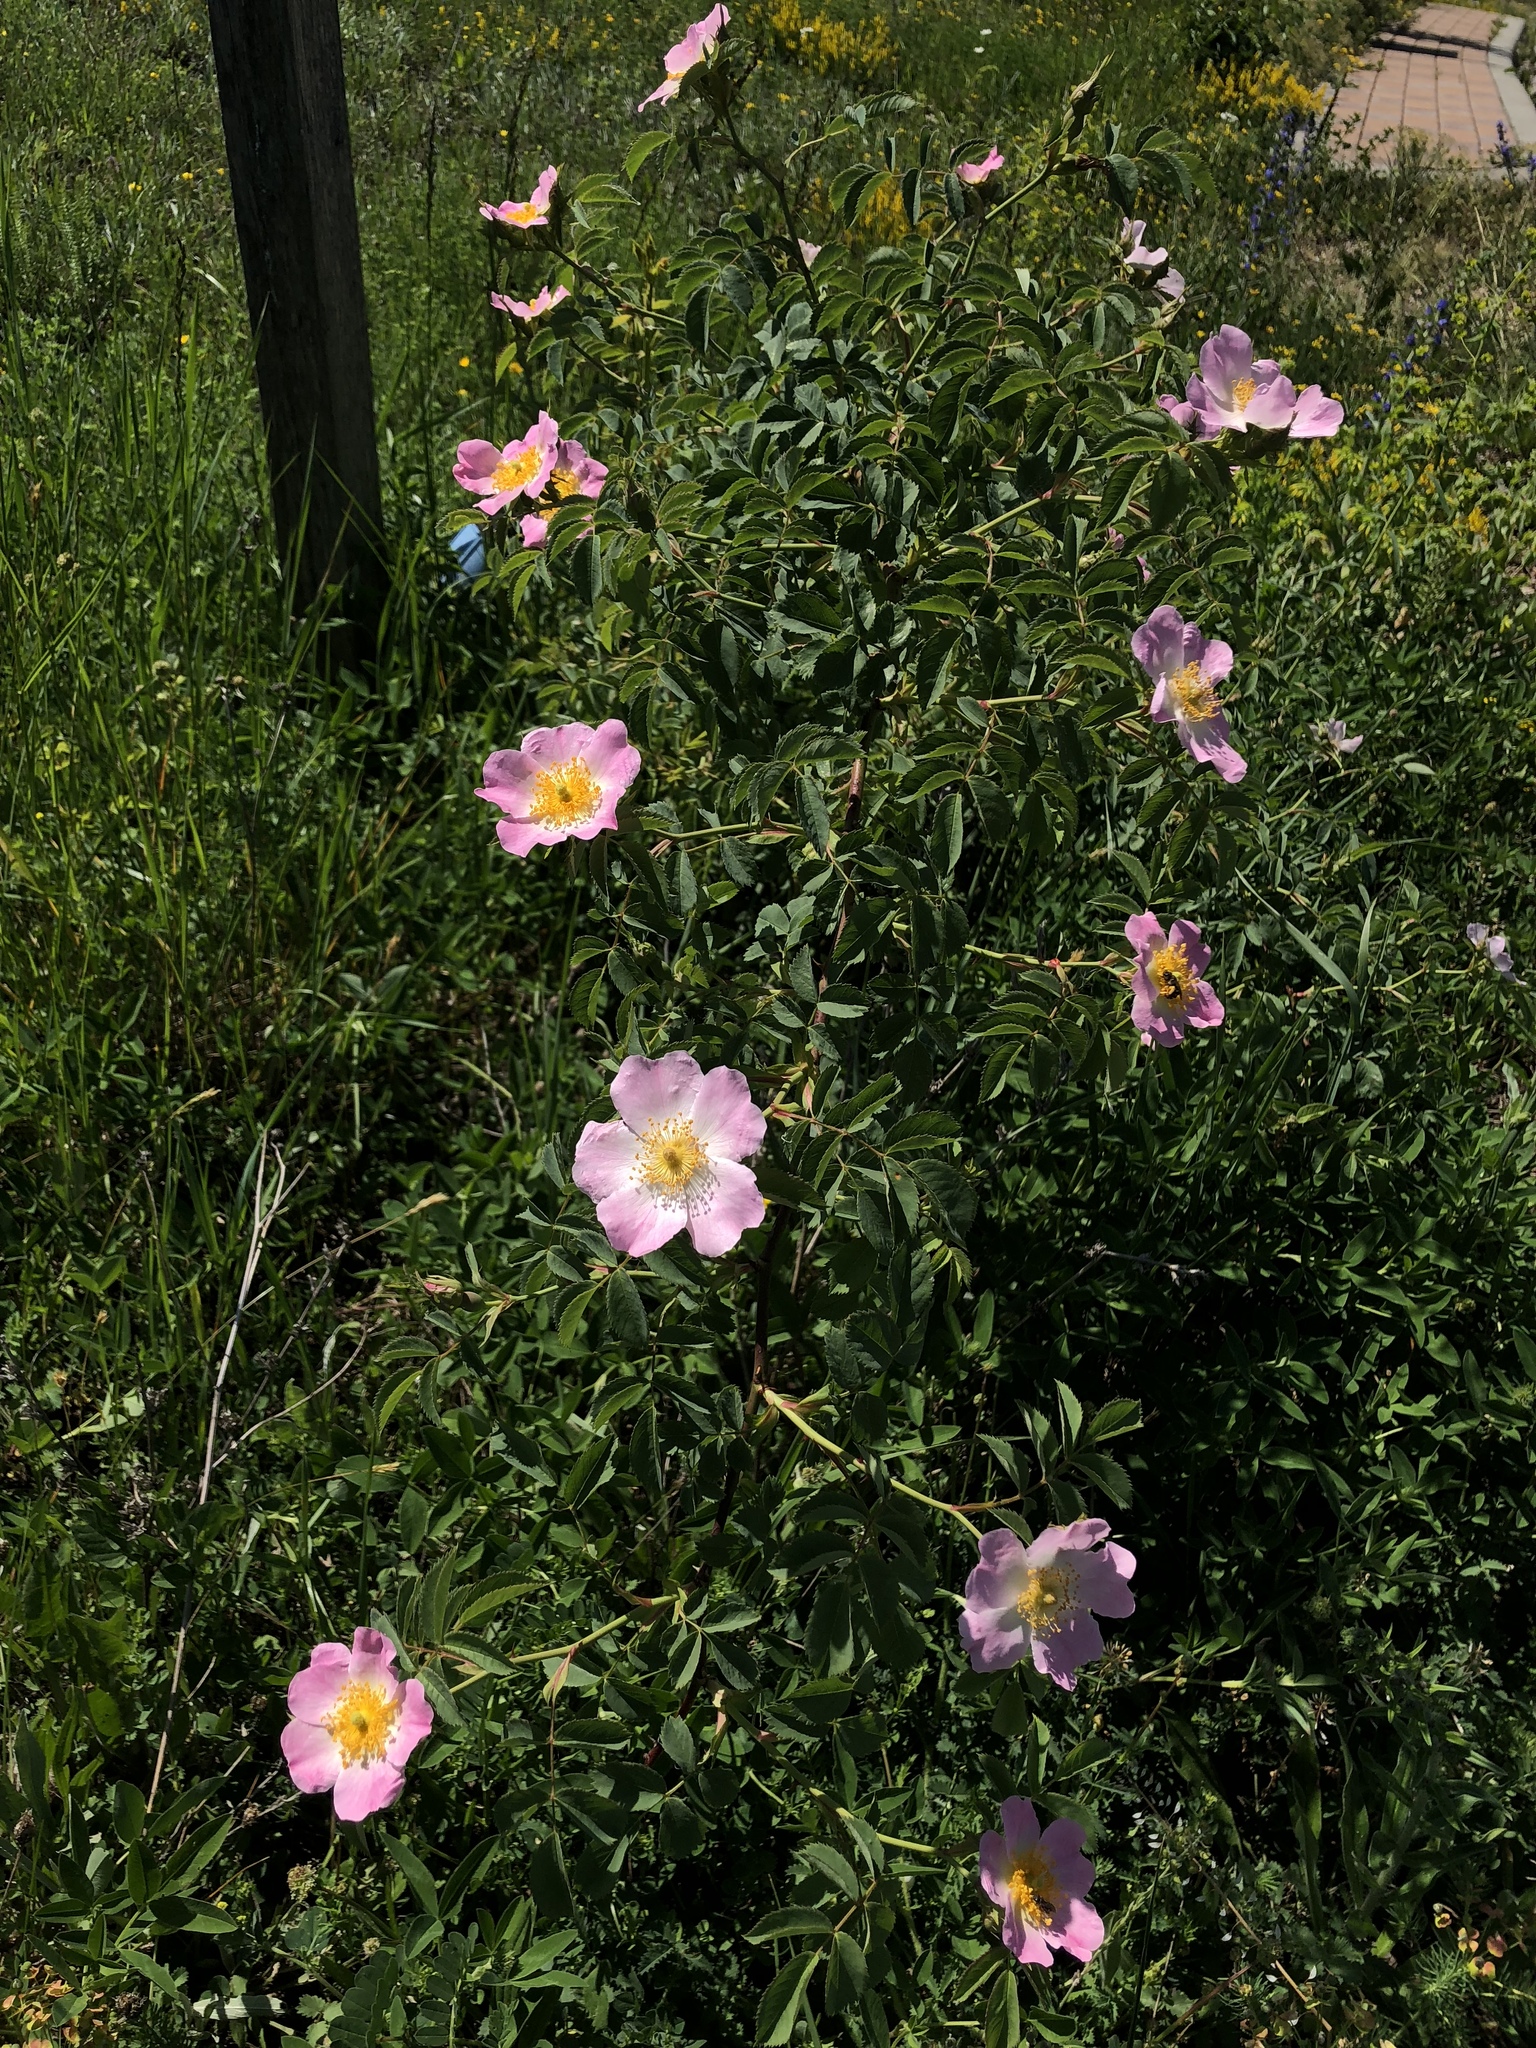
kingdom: Plantae
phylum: Tracheophyta
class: Magnoliopsida
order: Rosales
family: Rosaceae
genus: Rosa
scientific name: Rosa canina
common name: Dog rose
